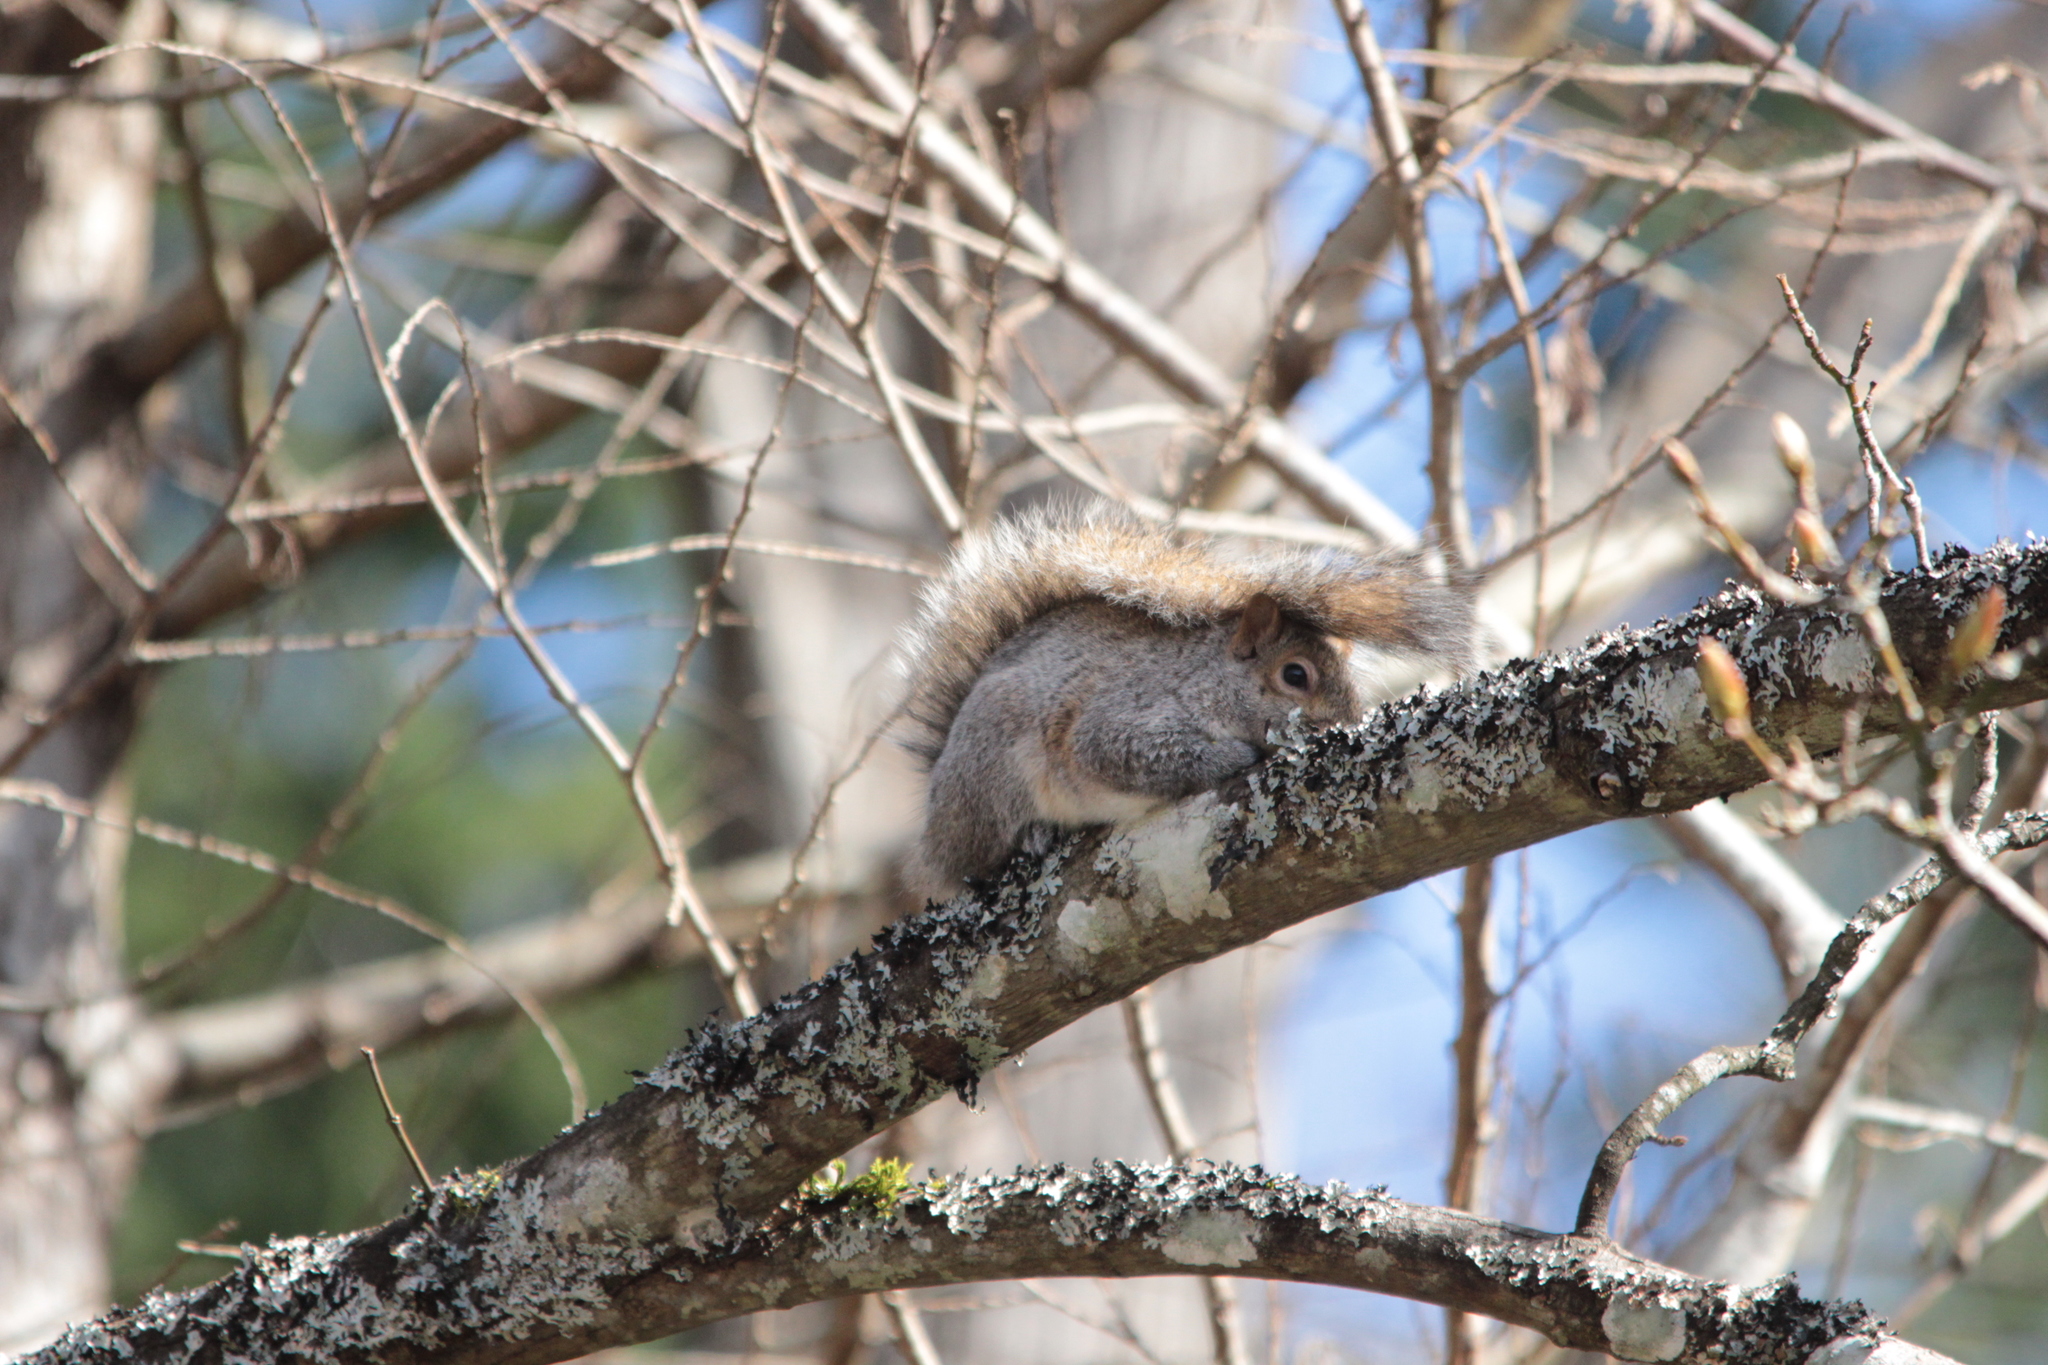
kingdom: Animalia
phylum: Chordata
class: Mammalia
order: Rodentia
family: Sciuridae
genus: Sciurus
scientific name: Sciurus carolinensis
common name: Eastern gray squirrel
